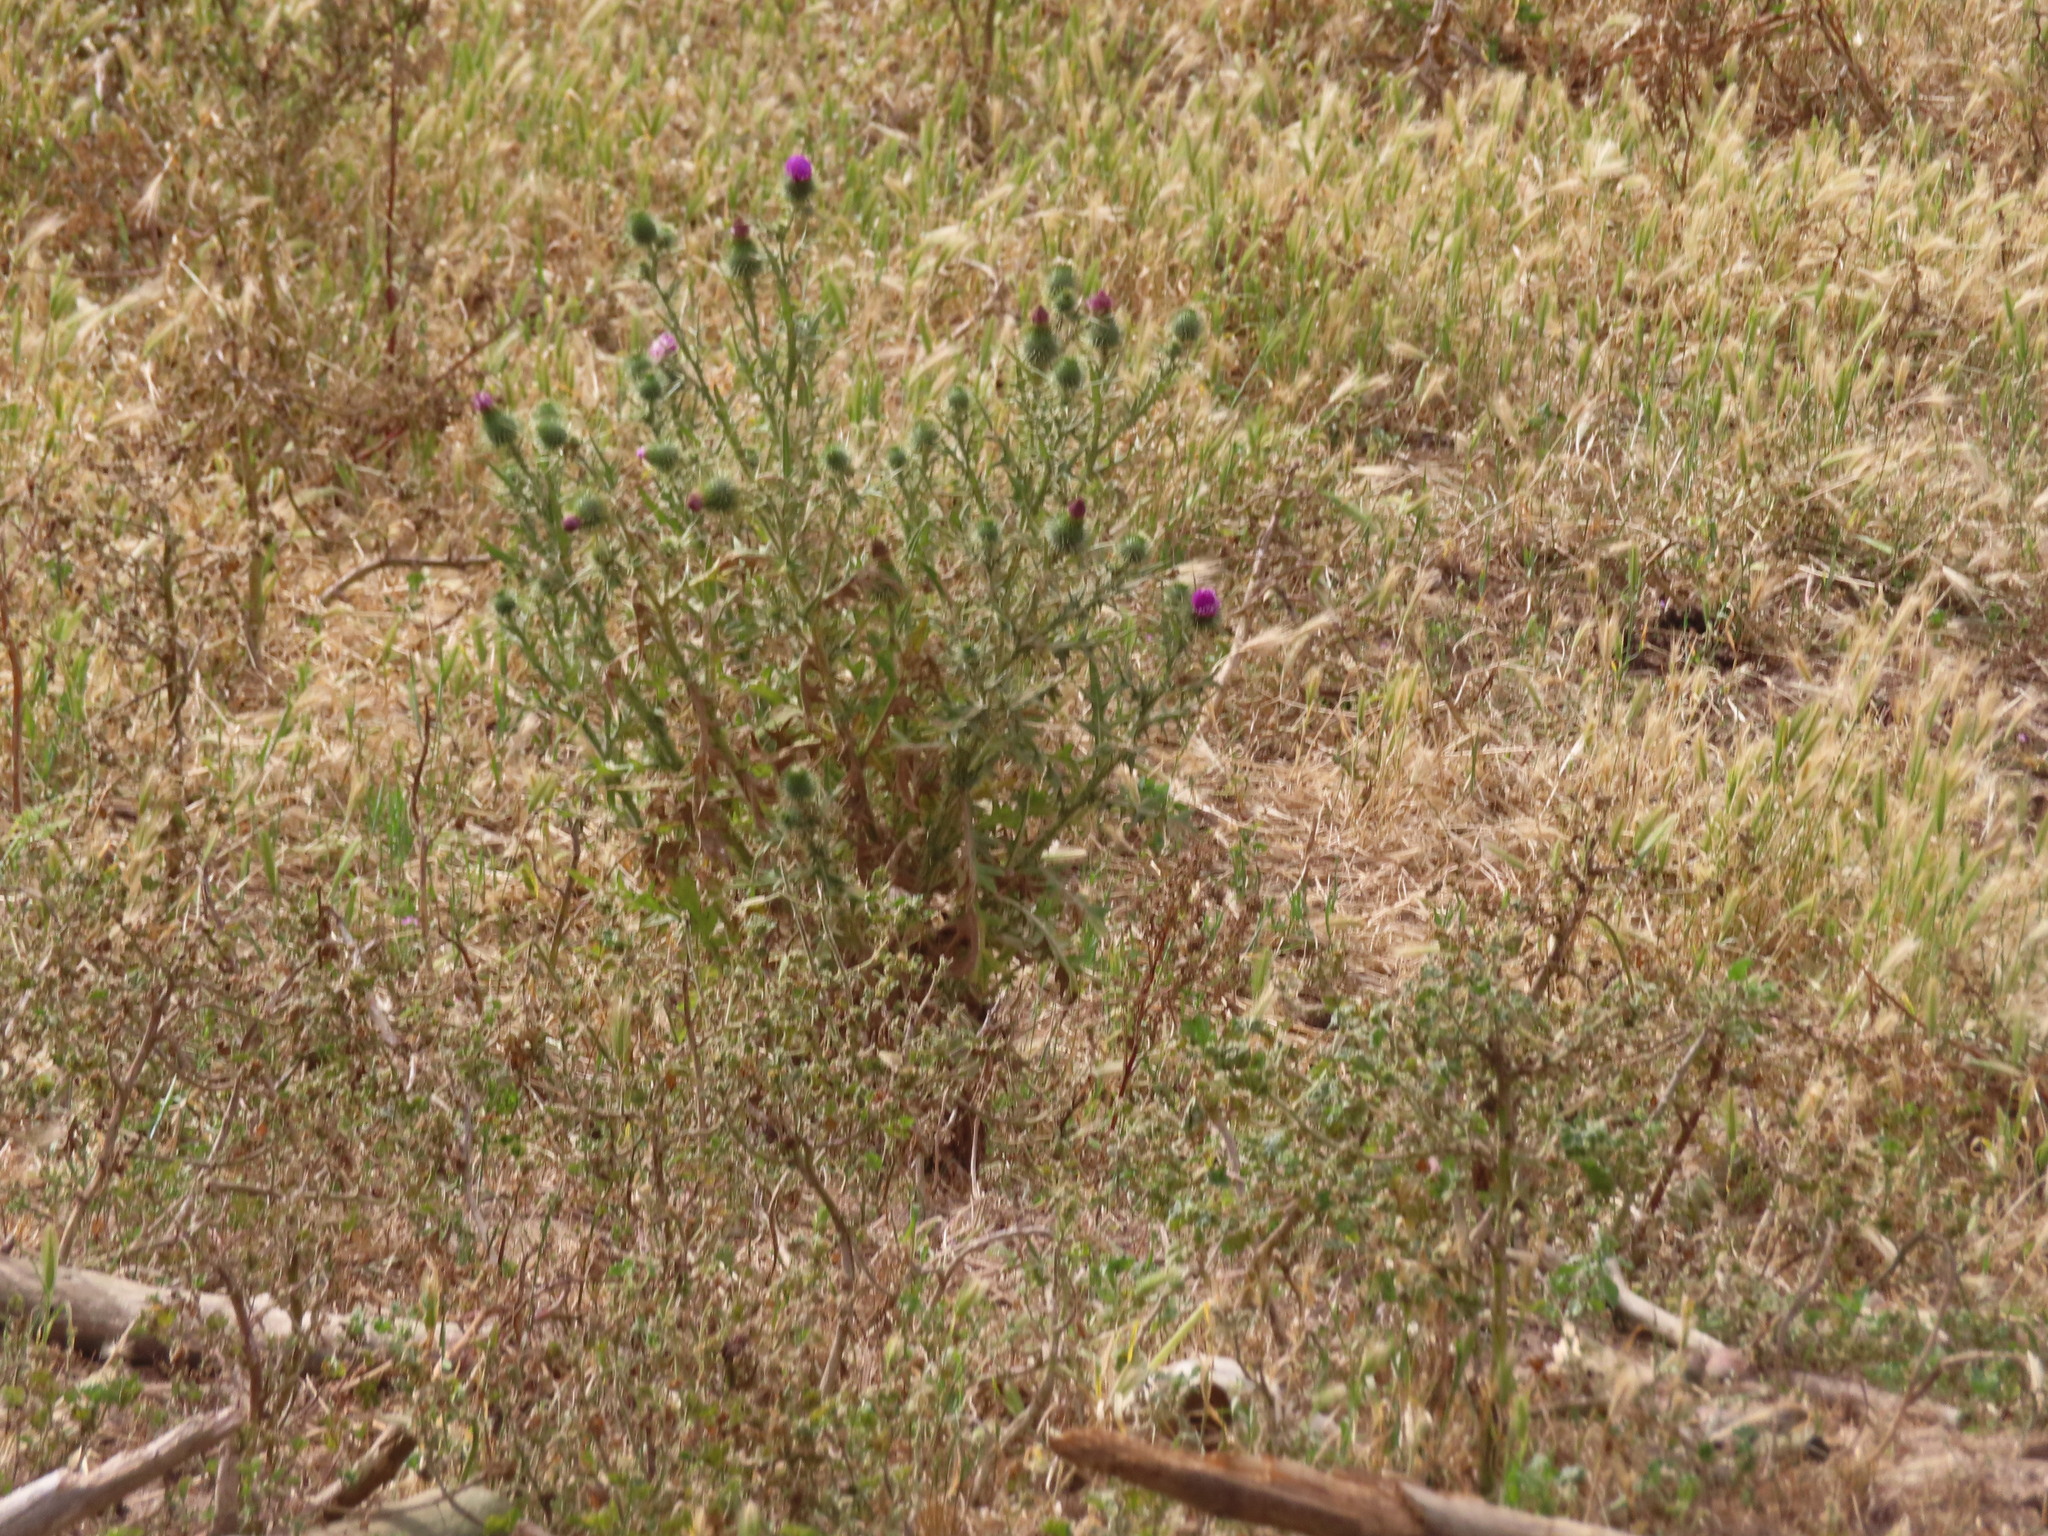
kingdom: Plantae
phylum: Tracheophyta
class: Magnoliopsida
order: Asterales
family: Asteraceae
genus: Cirsium
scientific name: Cirsium vulgare
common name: Bull thistle
